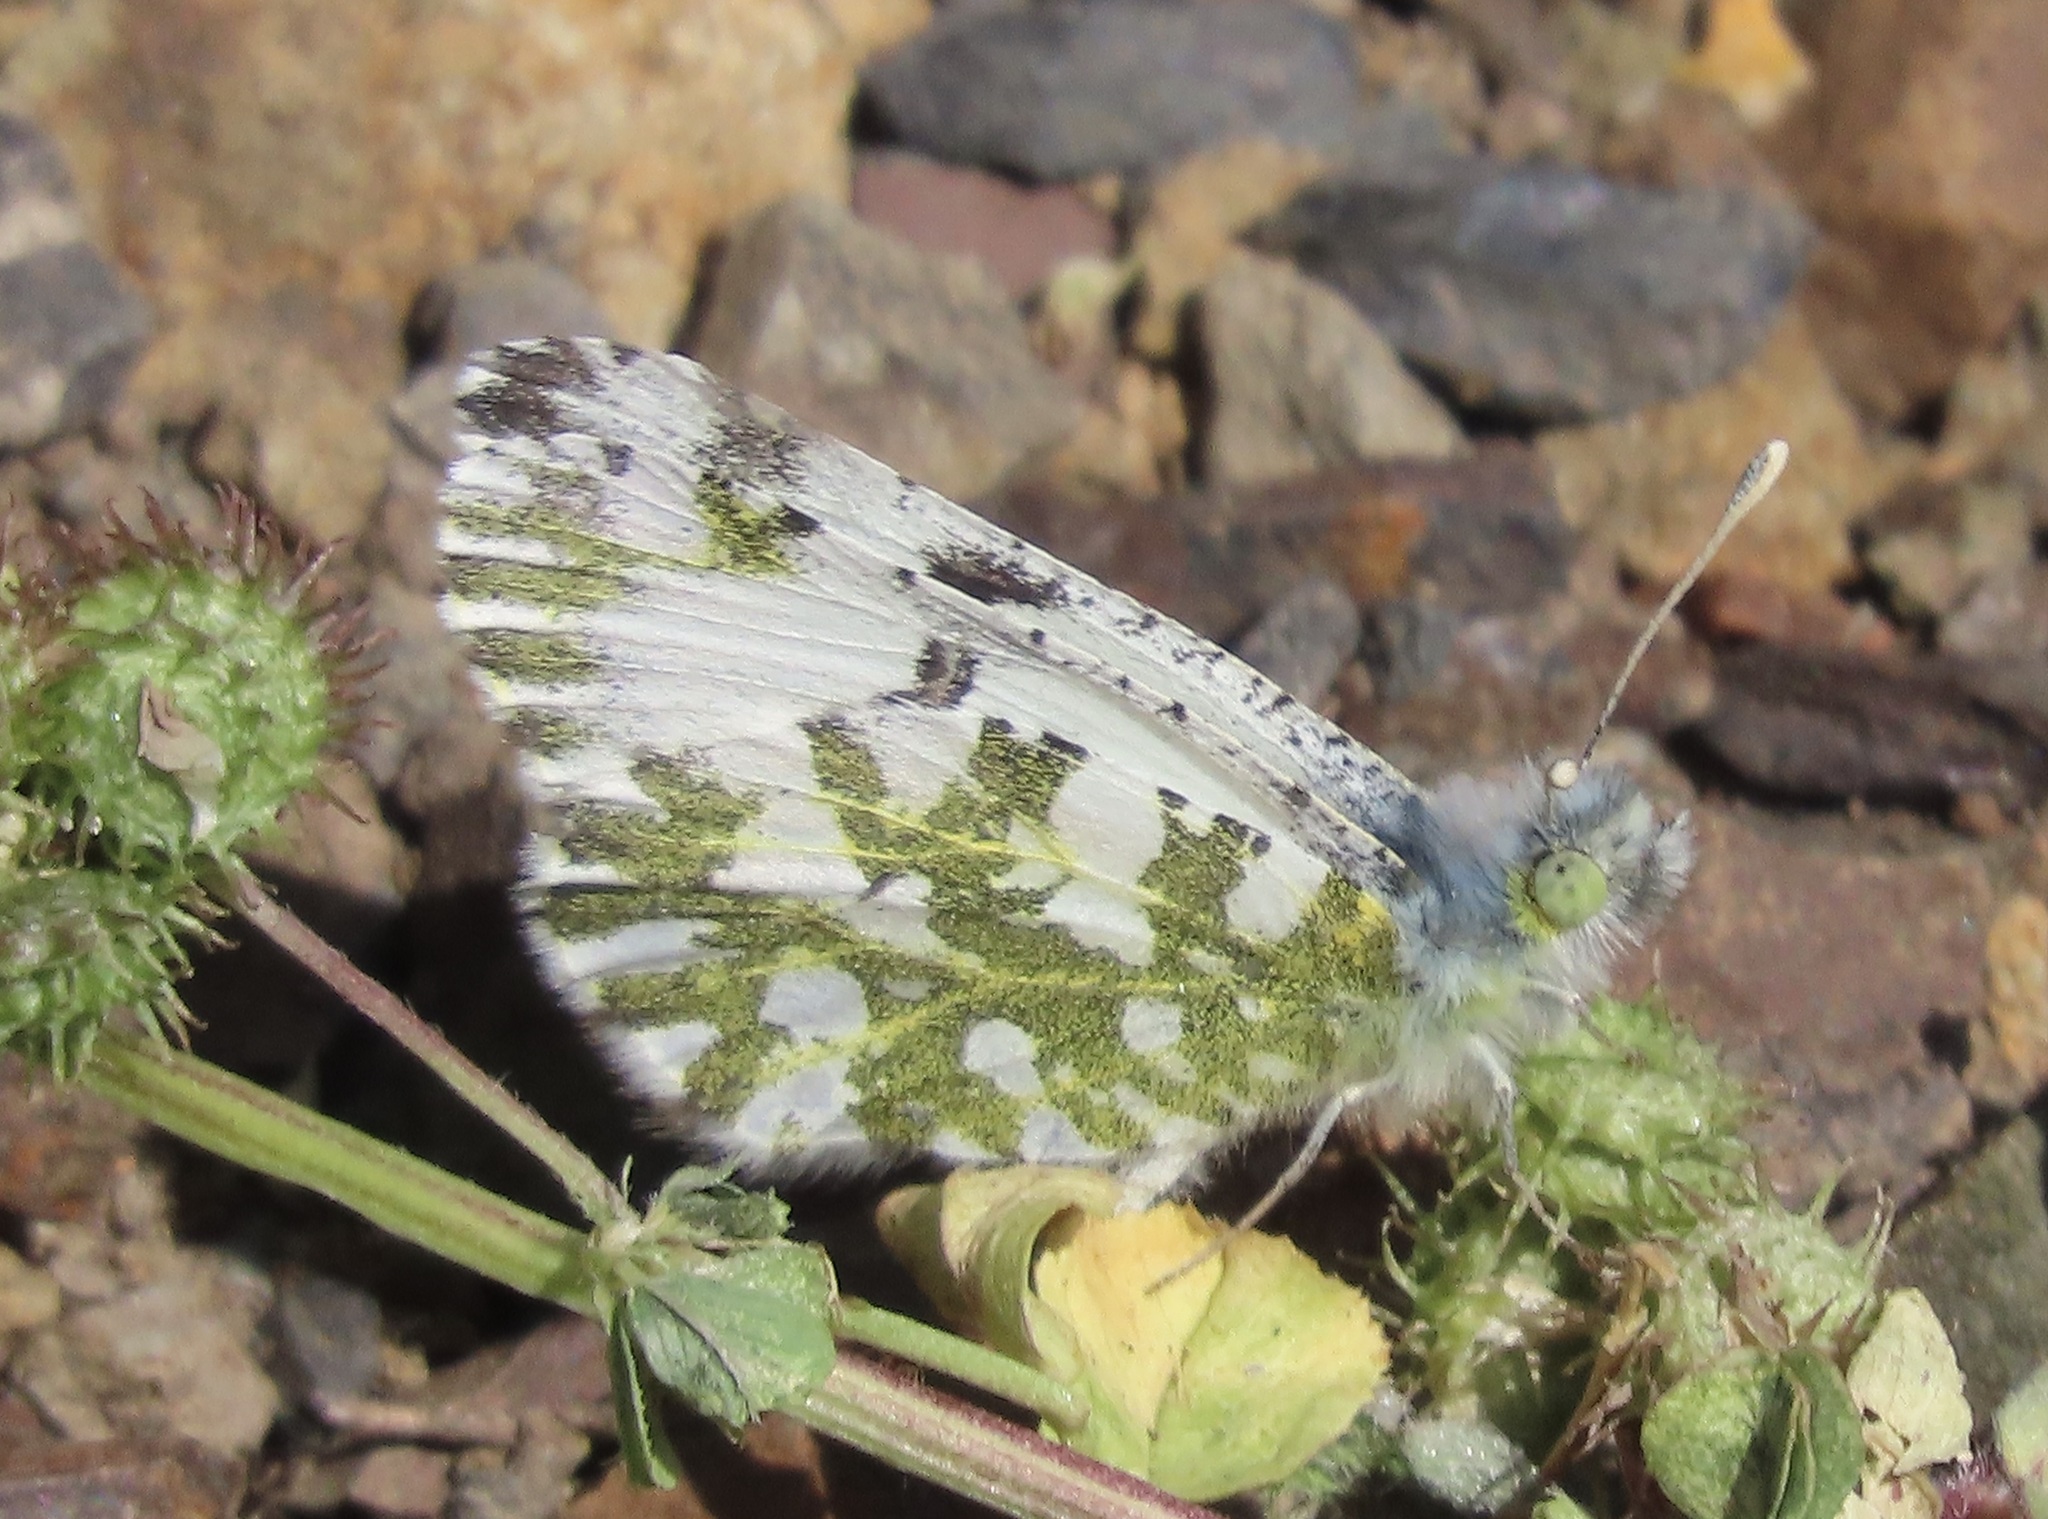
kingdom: Animalia
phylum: Arthropoda
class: Insecta
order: Lepidoptera
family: Pieridae
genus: Euchloe
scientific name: Euchloe hyantis
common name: California marble
